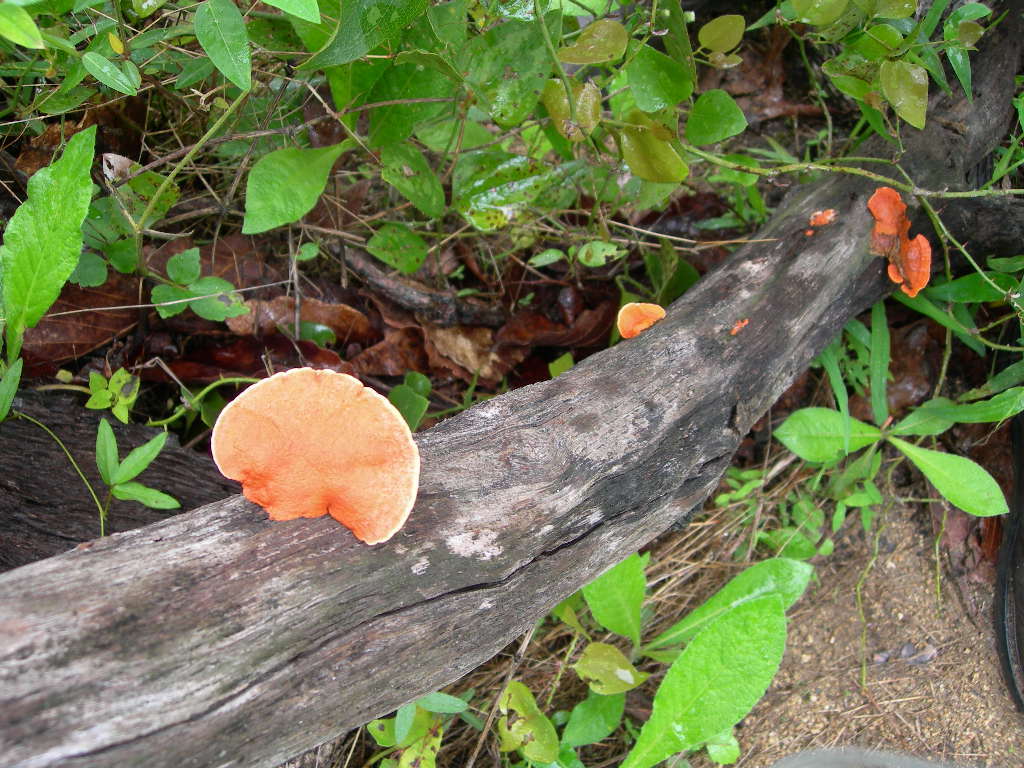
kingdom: Fungi
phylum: Basidiomycota
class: Agaricomycetes
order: Polyporales
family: Polyporaceae
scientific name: Polyporaceae
